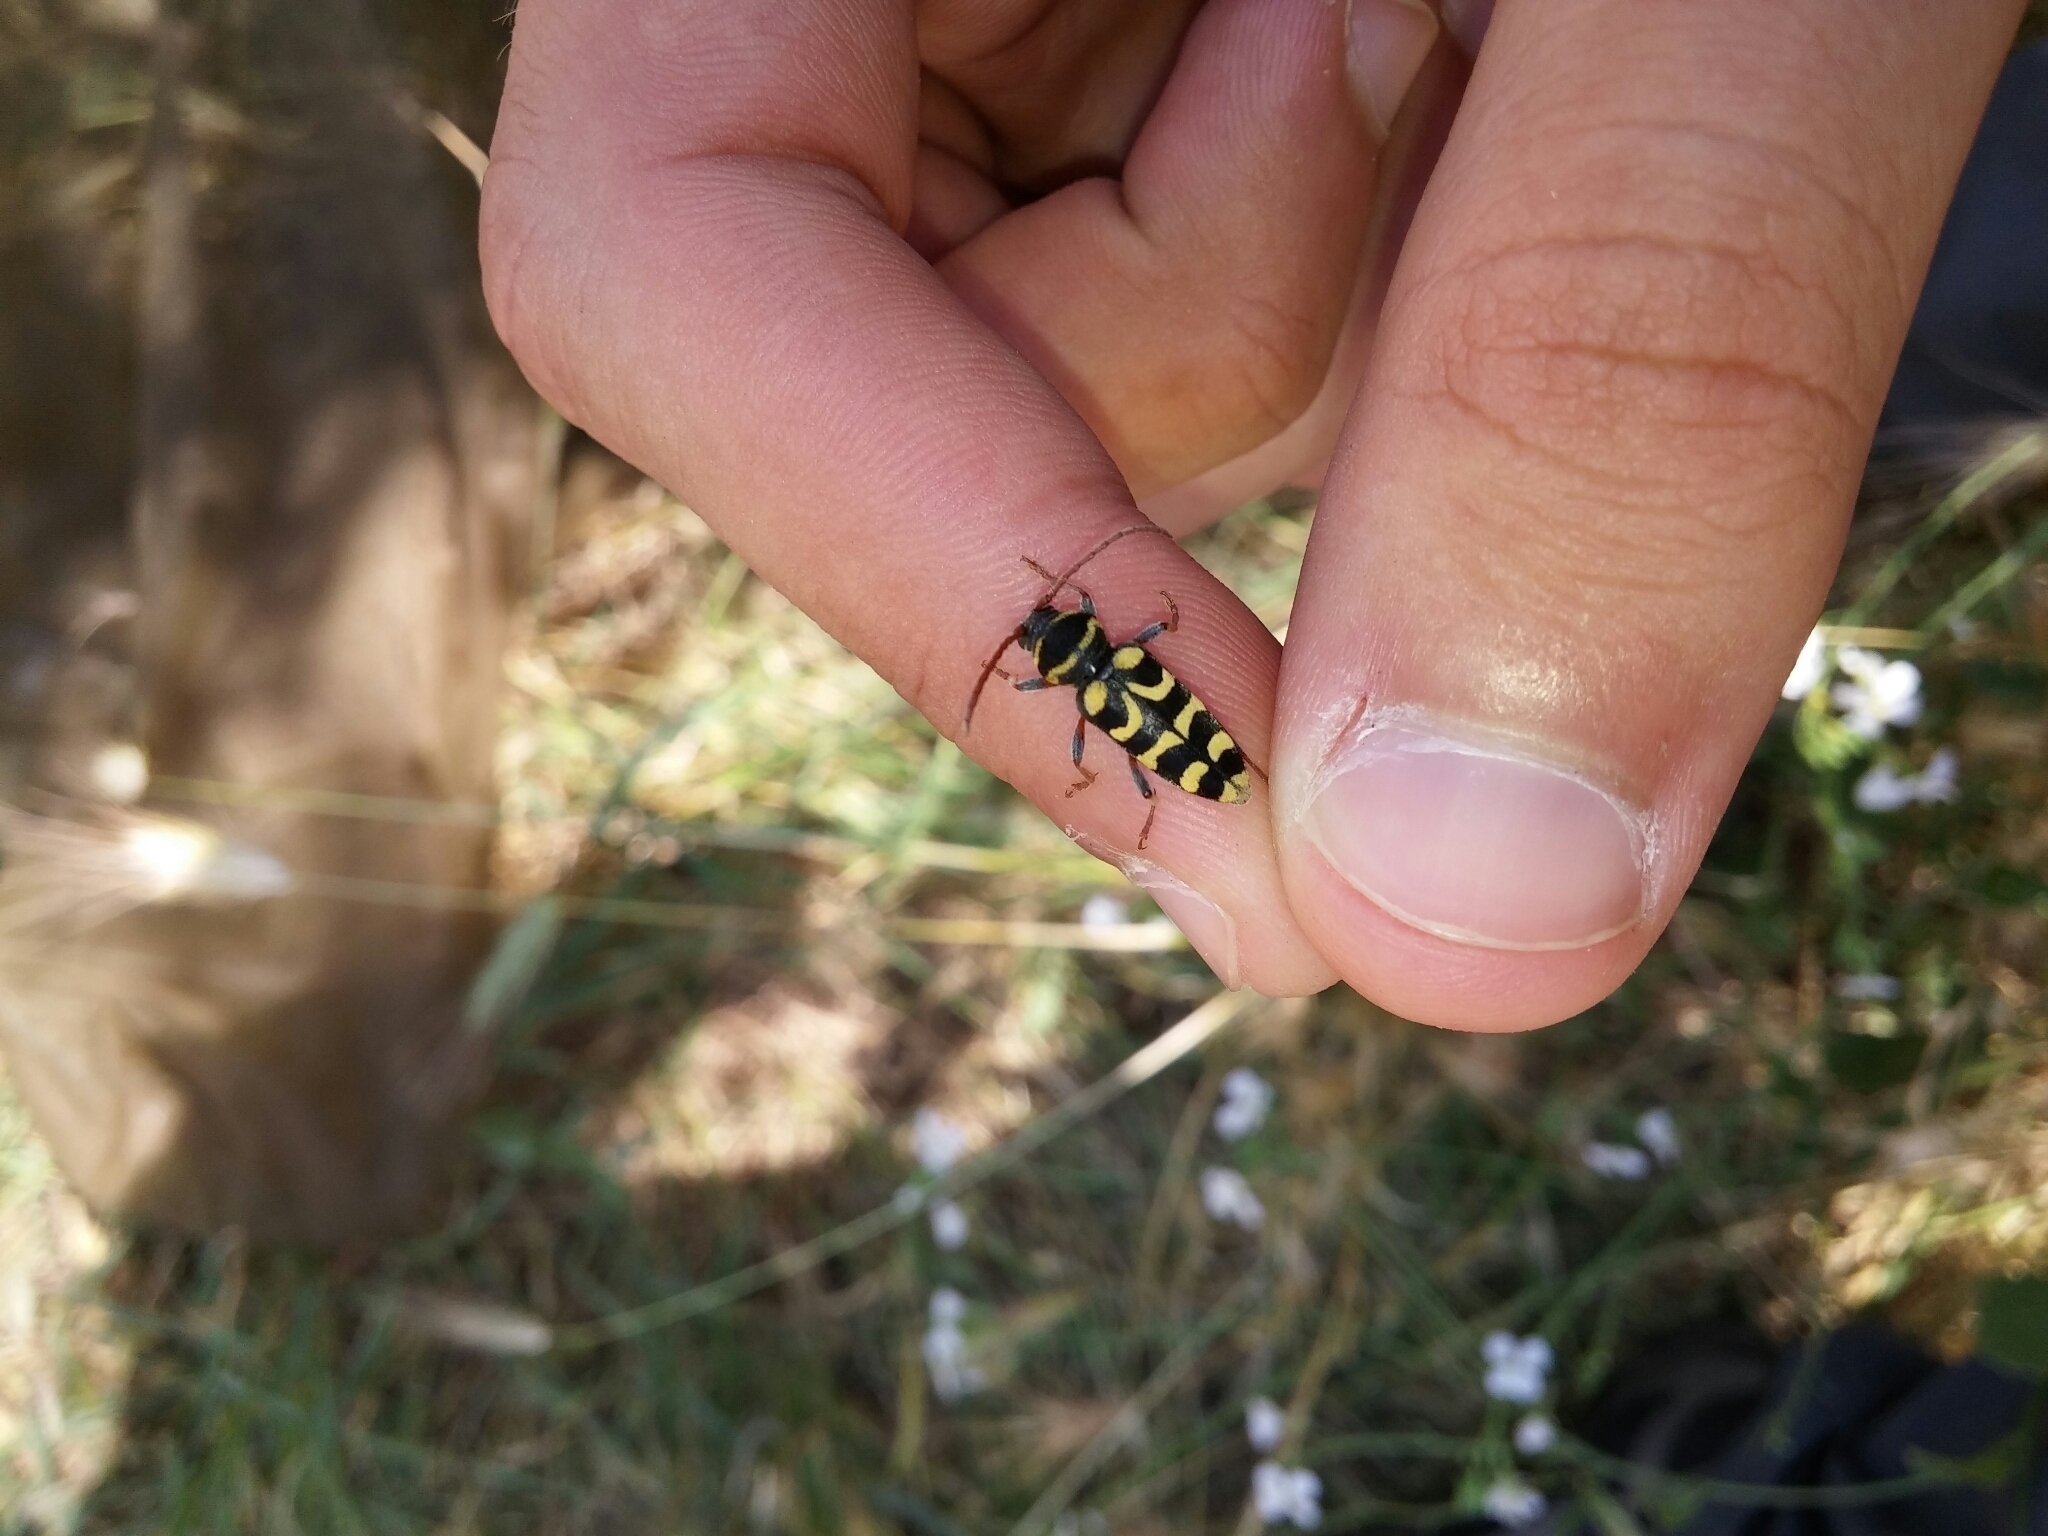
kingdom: Animalia
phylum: Arthropoda
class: Insecta
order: Coleoptera
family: Cerambycidae
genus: Neoplagionotus
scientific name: Neoplagionotus scalaris
